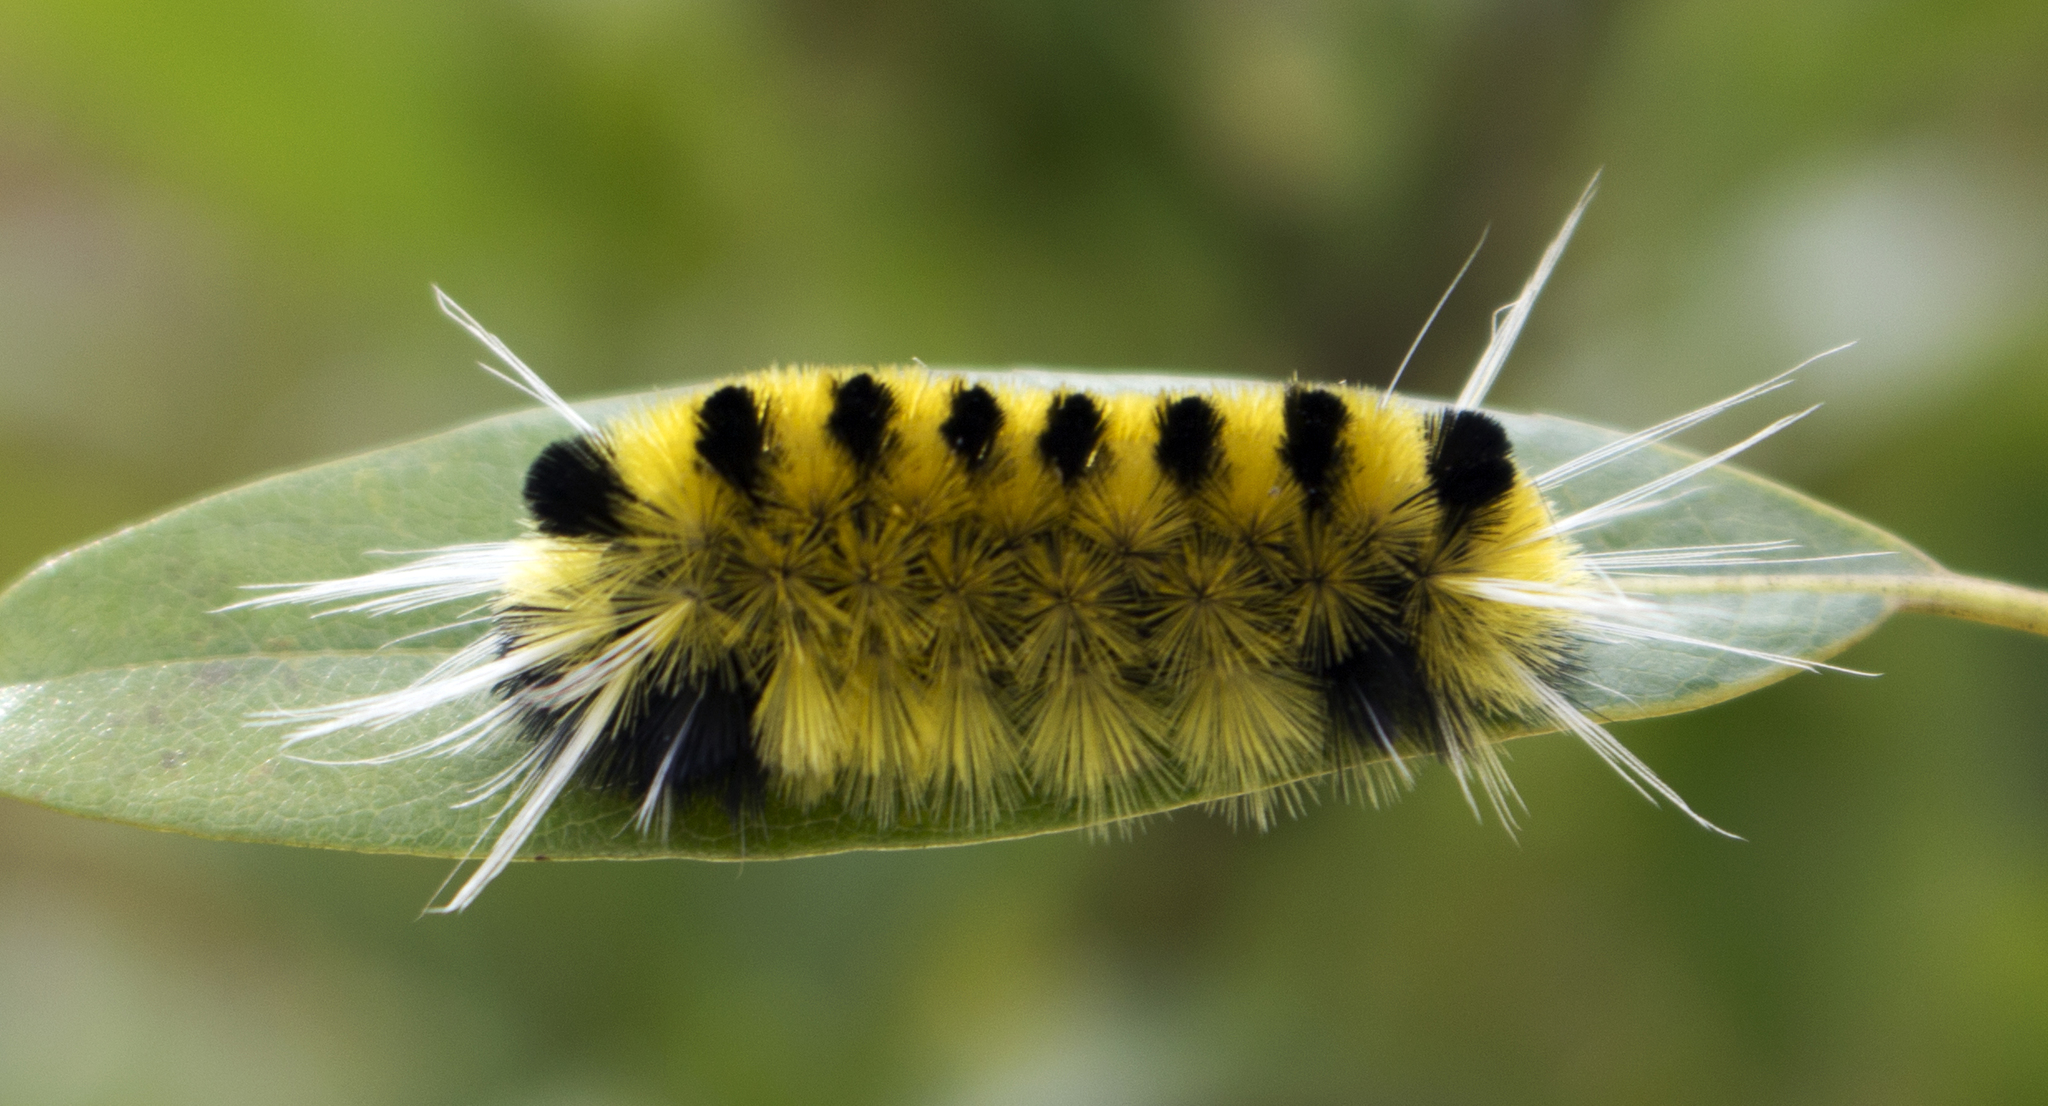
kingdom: Animalia
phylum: Arthropoda
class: Insecta
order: Lepidoptera
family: Erebidae
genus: Lophocampa
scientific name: Lophocampa maculata
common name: Spotted tussock moth
